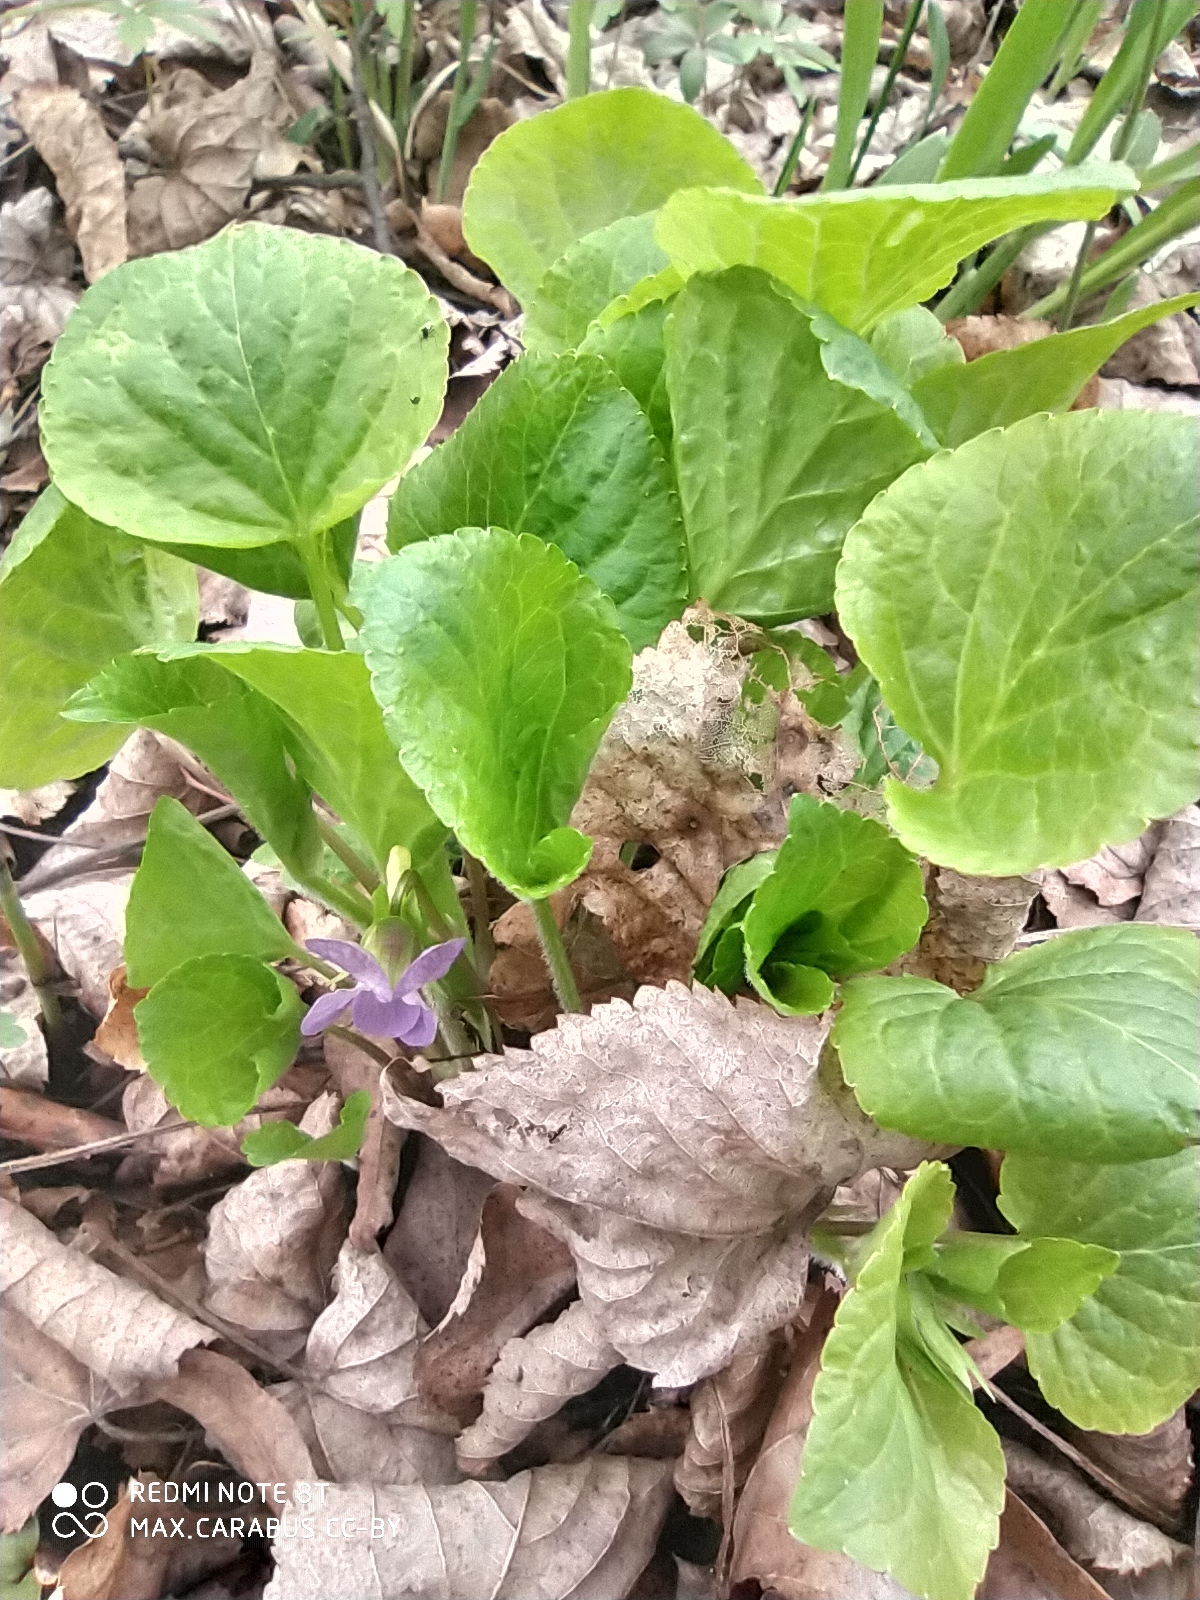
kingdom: Plantae
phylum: Tracheophyta
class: Magnoliopsida
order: Malpighiales
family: Violaceae
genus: Viola
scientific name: Viola mirabilis
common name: Wonder violet
